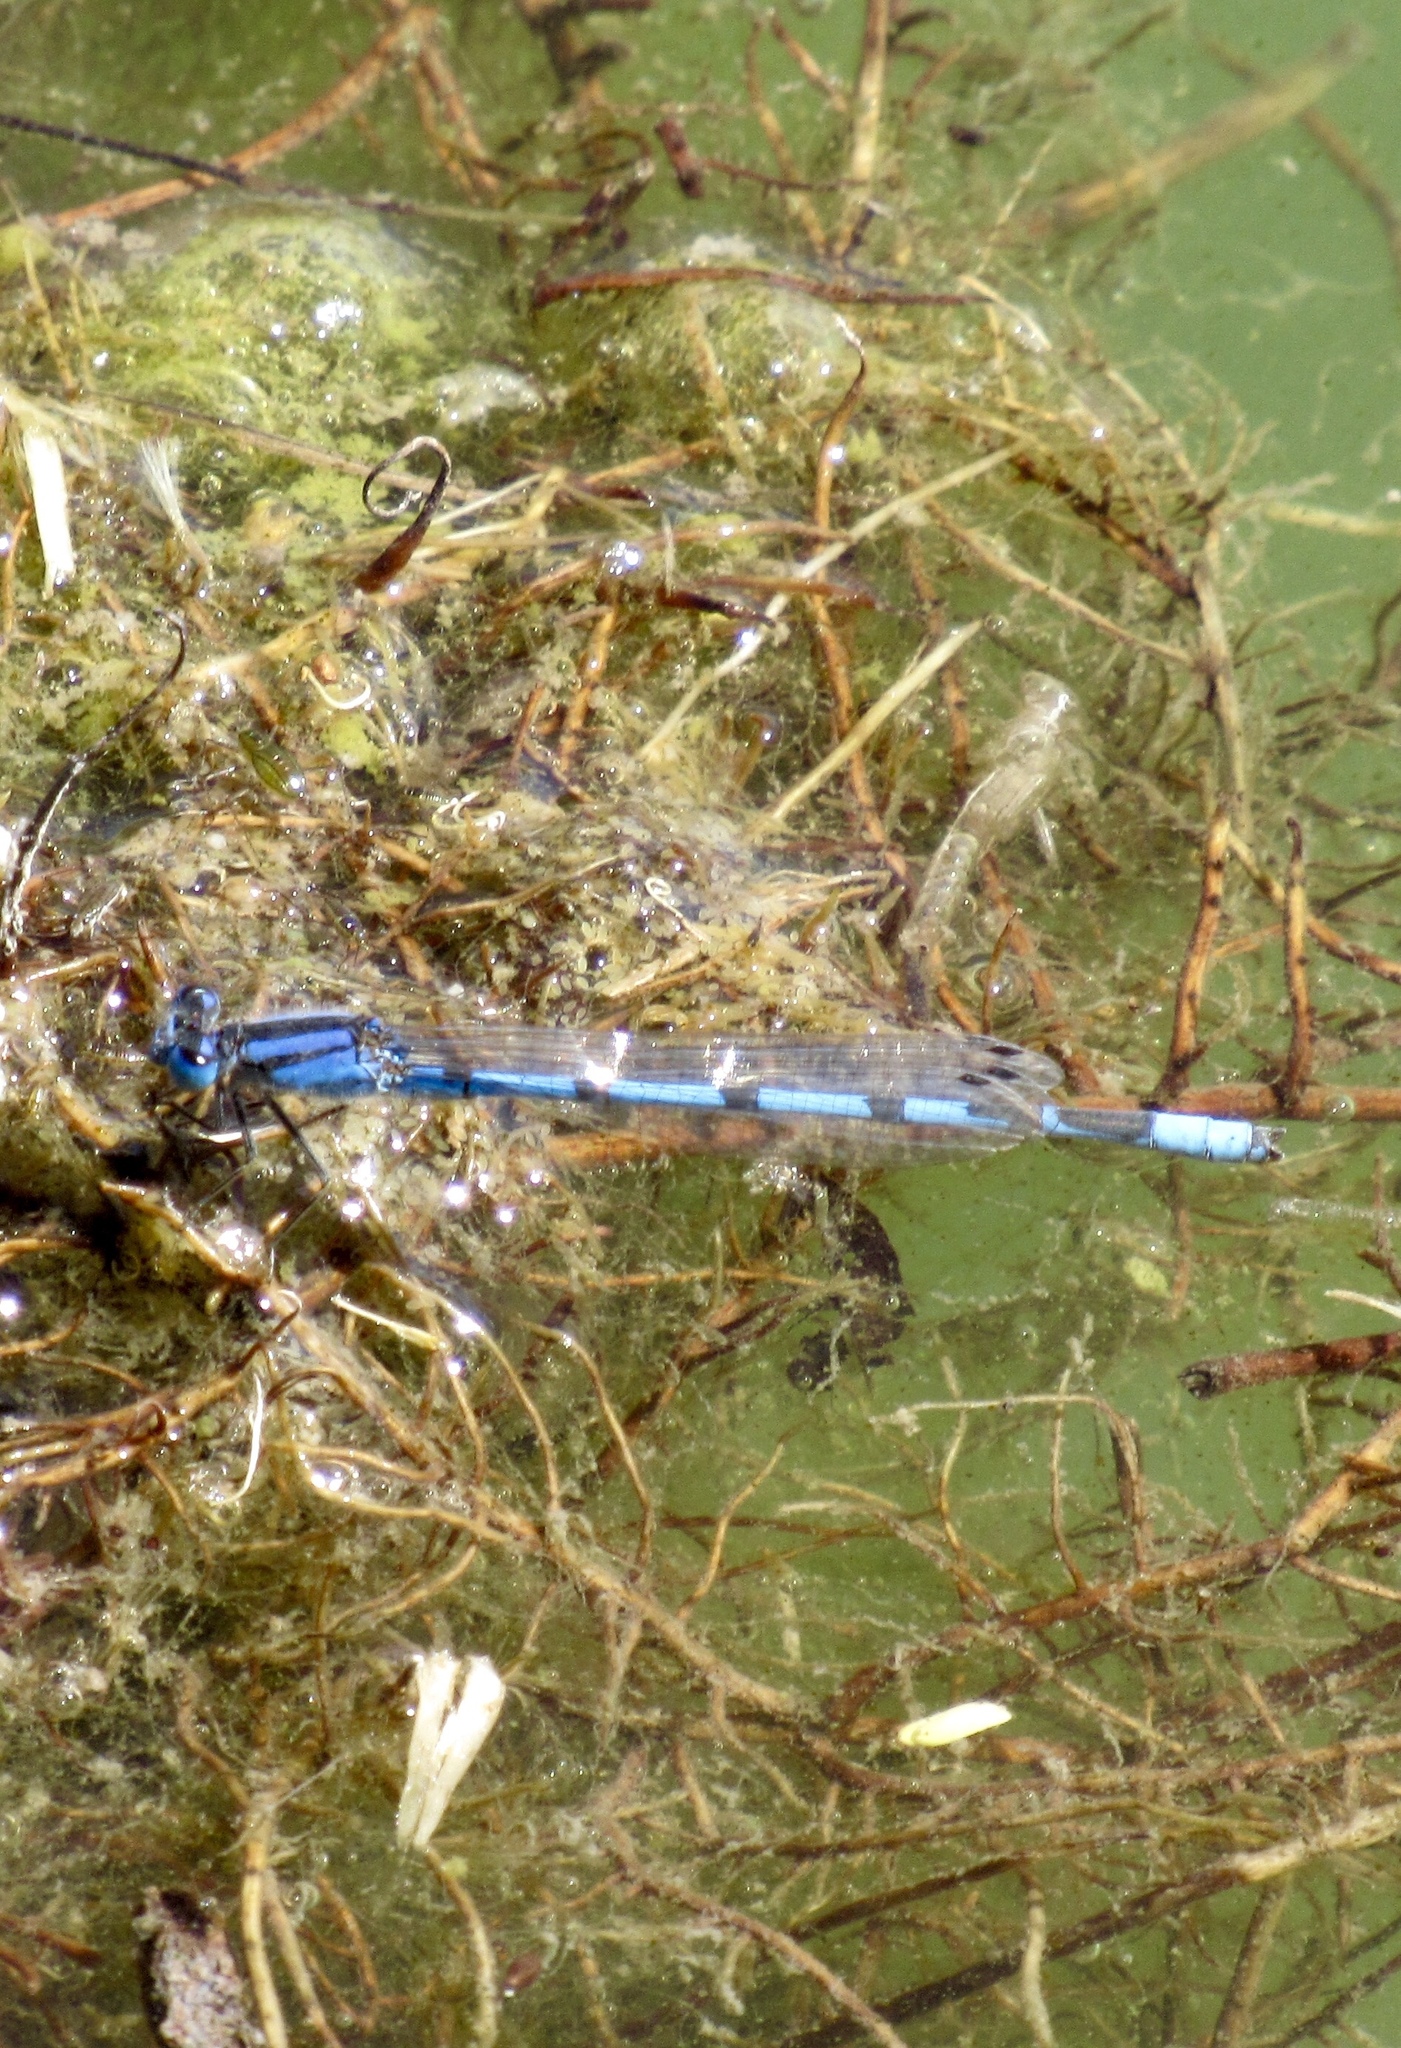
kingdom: Animalia
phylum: Arthropoda
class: Insecta
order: Odonata
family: Coenagrionidae
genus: Enallagma
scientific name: Enallagma civile
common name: Damselfly
